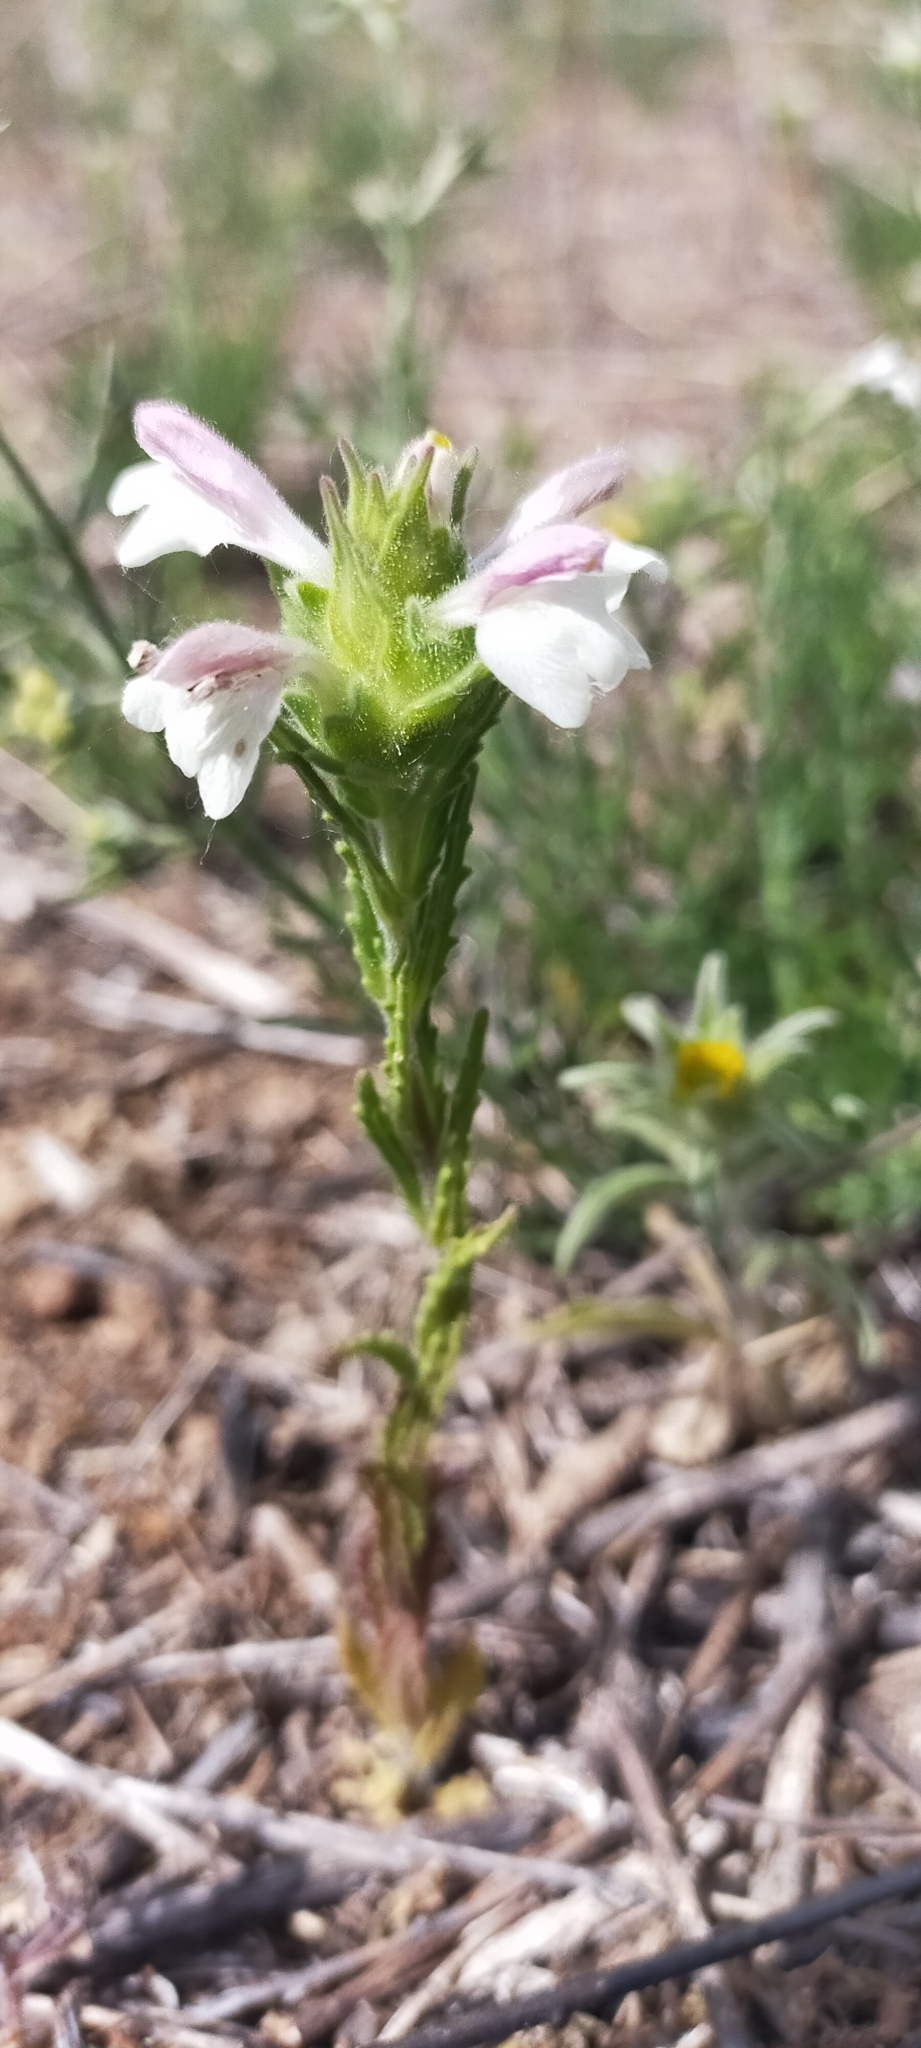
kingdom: Plantae
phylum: Tracheophyta
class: Magnoliopsida
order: Lamiales
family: Orobanchaceae
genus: Bellardia
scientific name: Bellardia trixago
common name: Mediterranean lineseed
